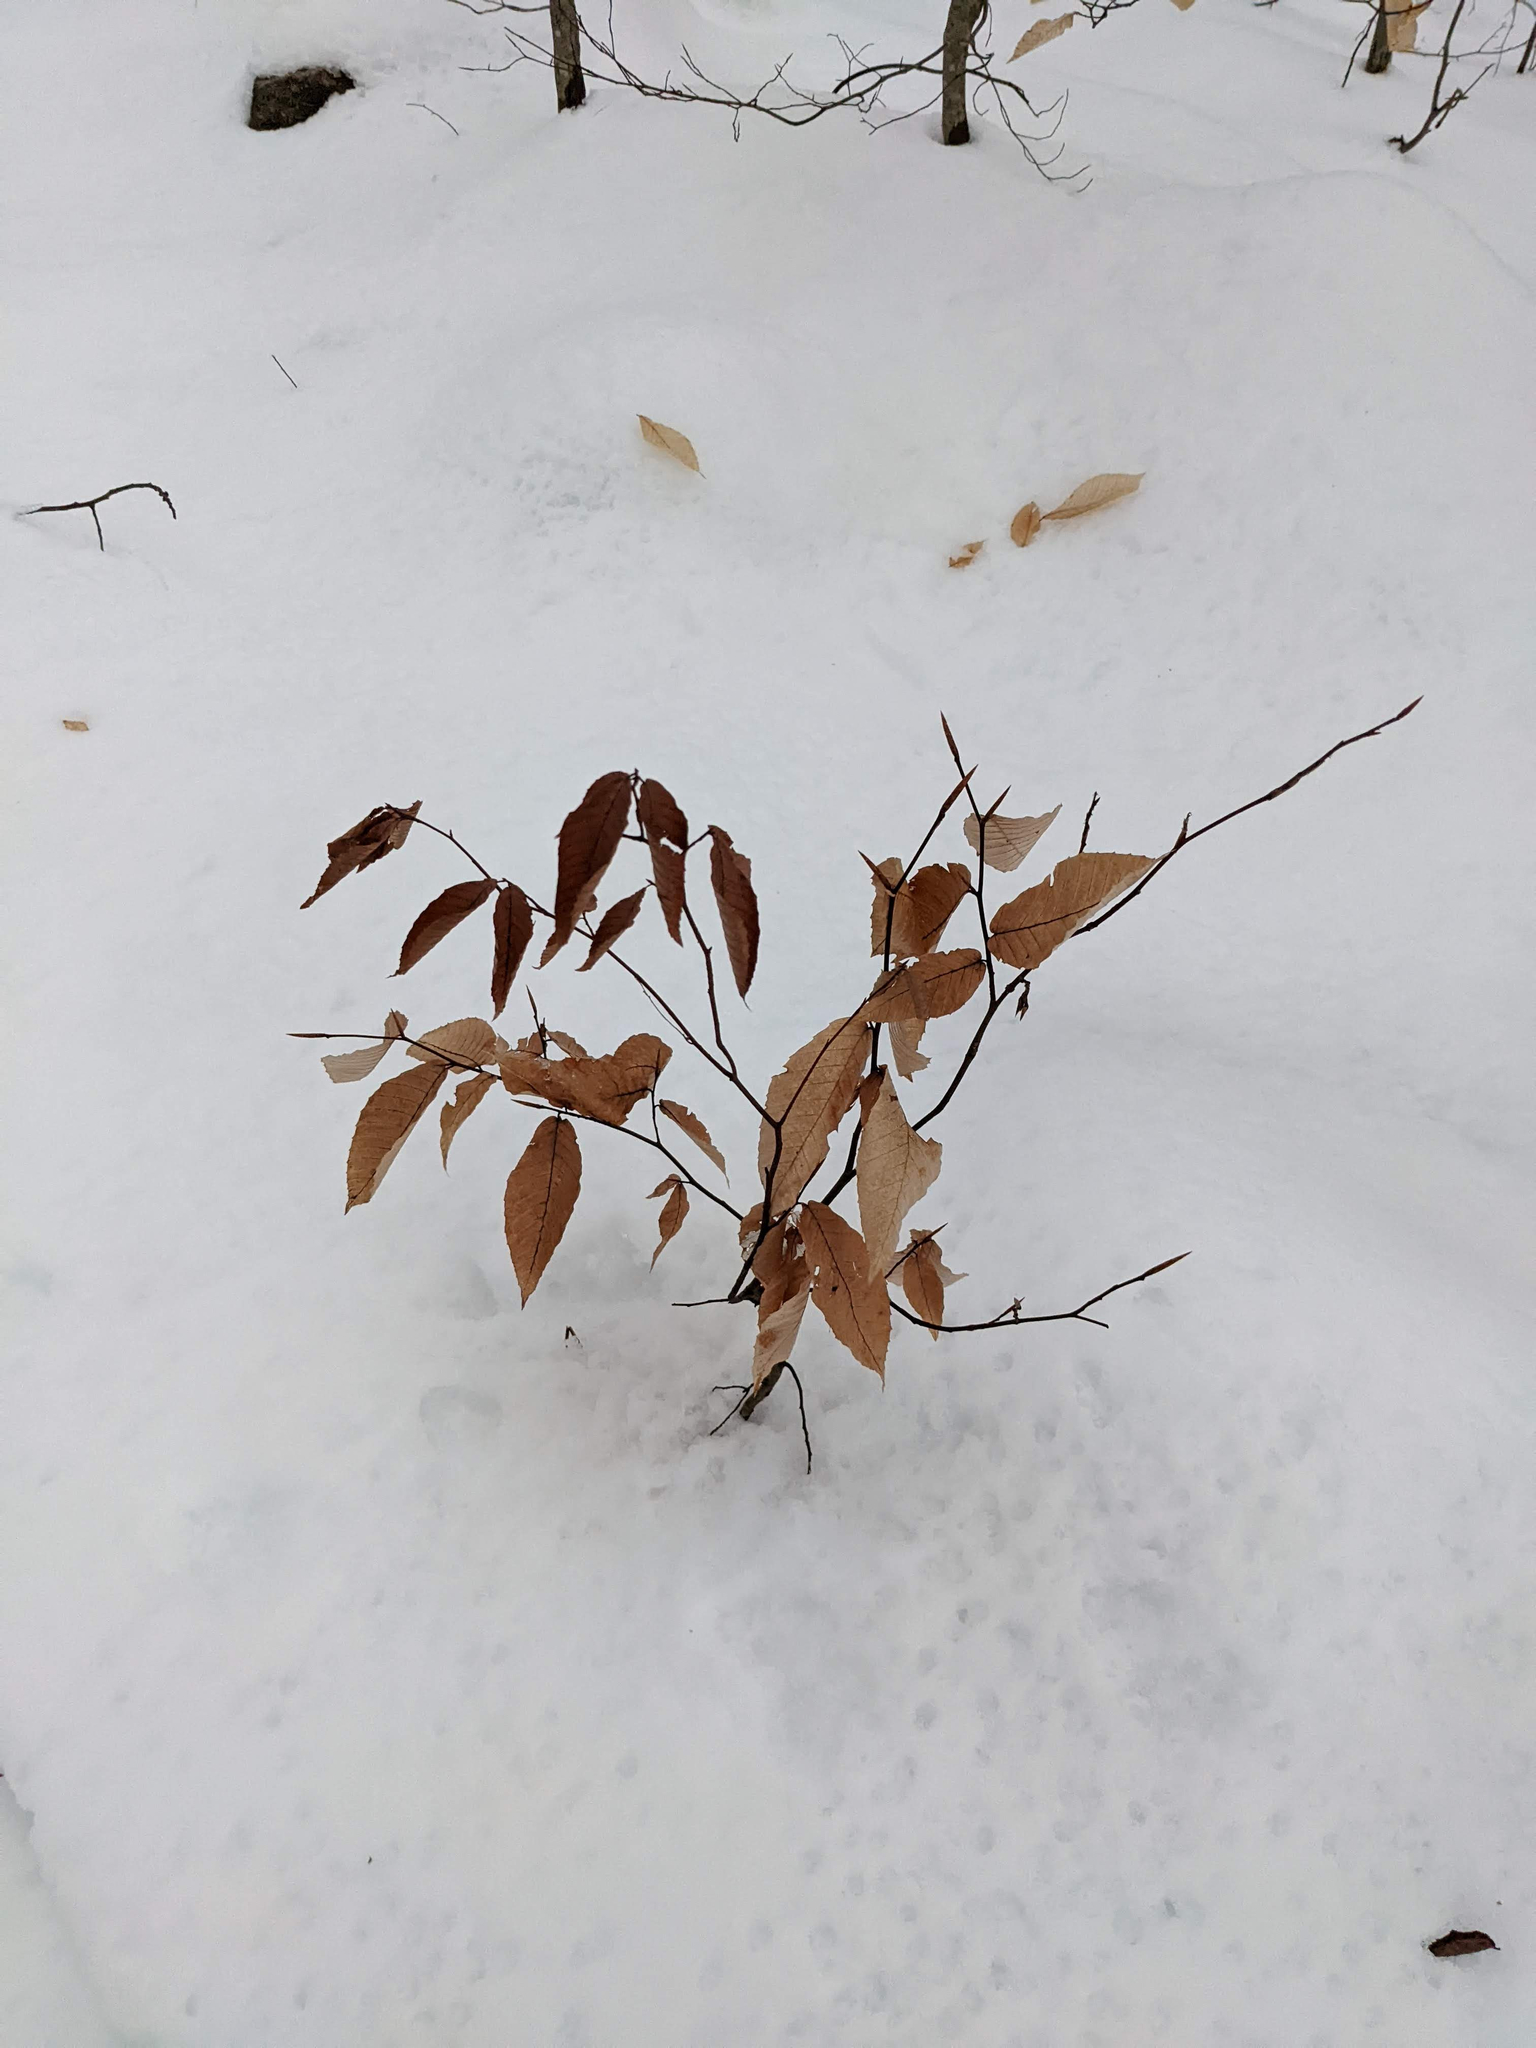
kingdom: Plantae
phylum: Tracheophyta
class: Magnoliopsida
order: Fagales
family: Fagaceae
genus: Fagus
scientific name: Fagus grandifolia
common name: American beech
